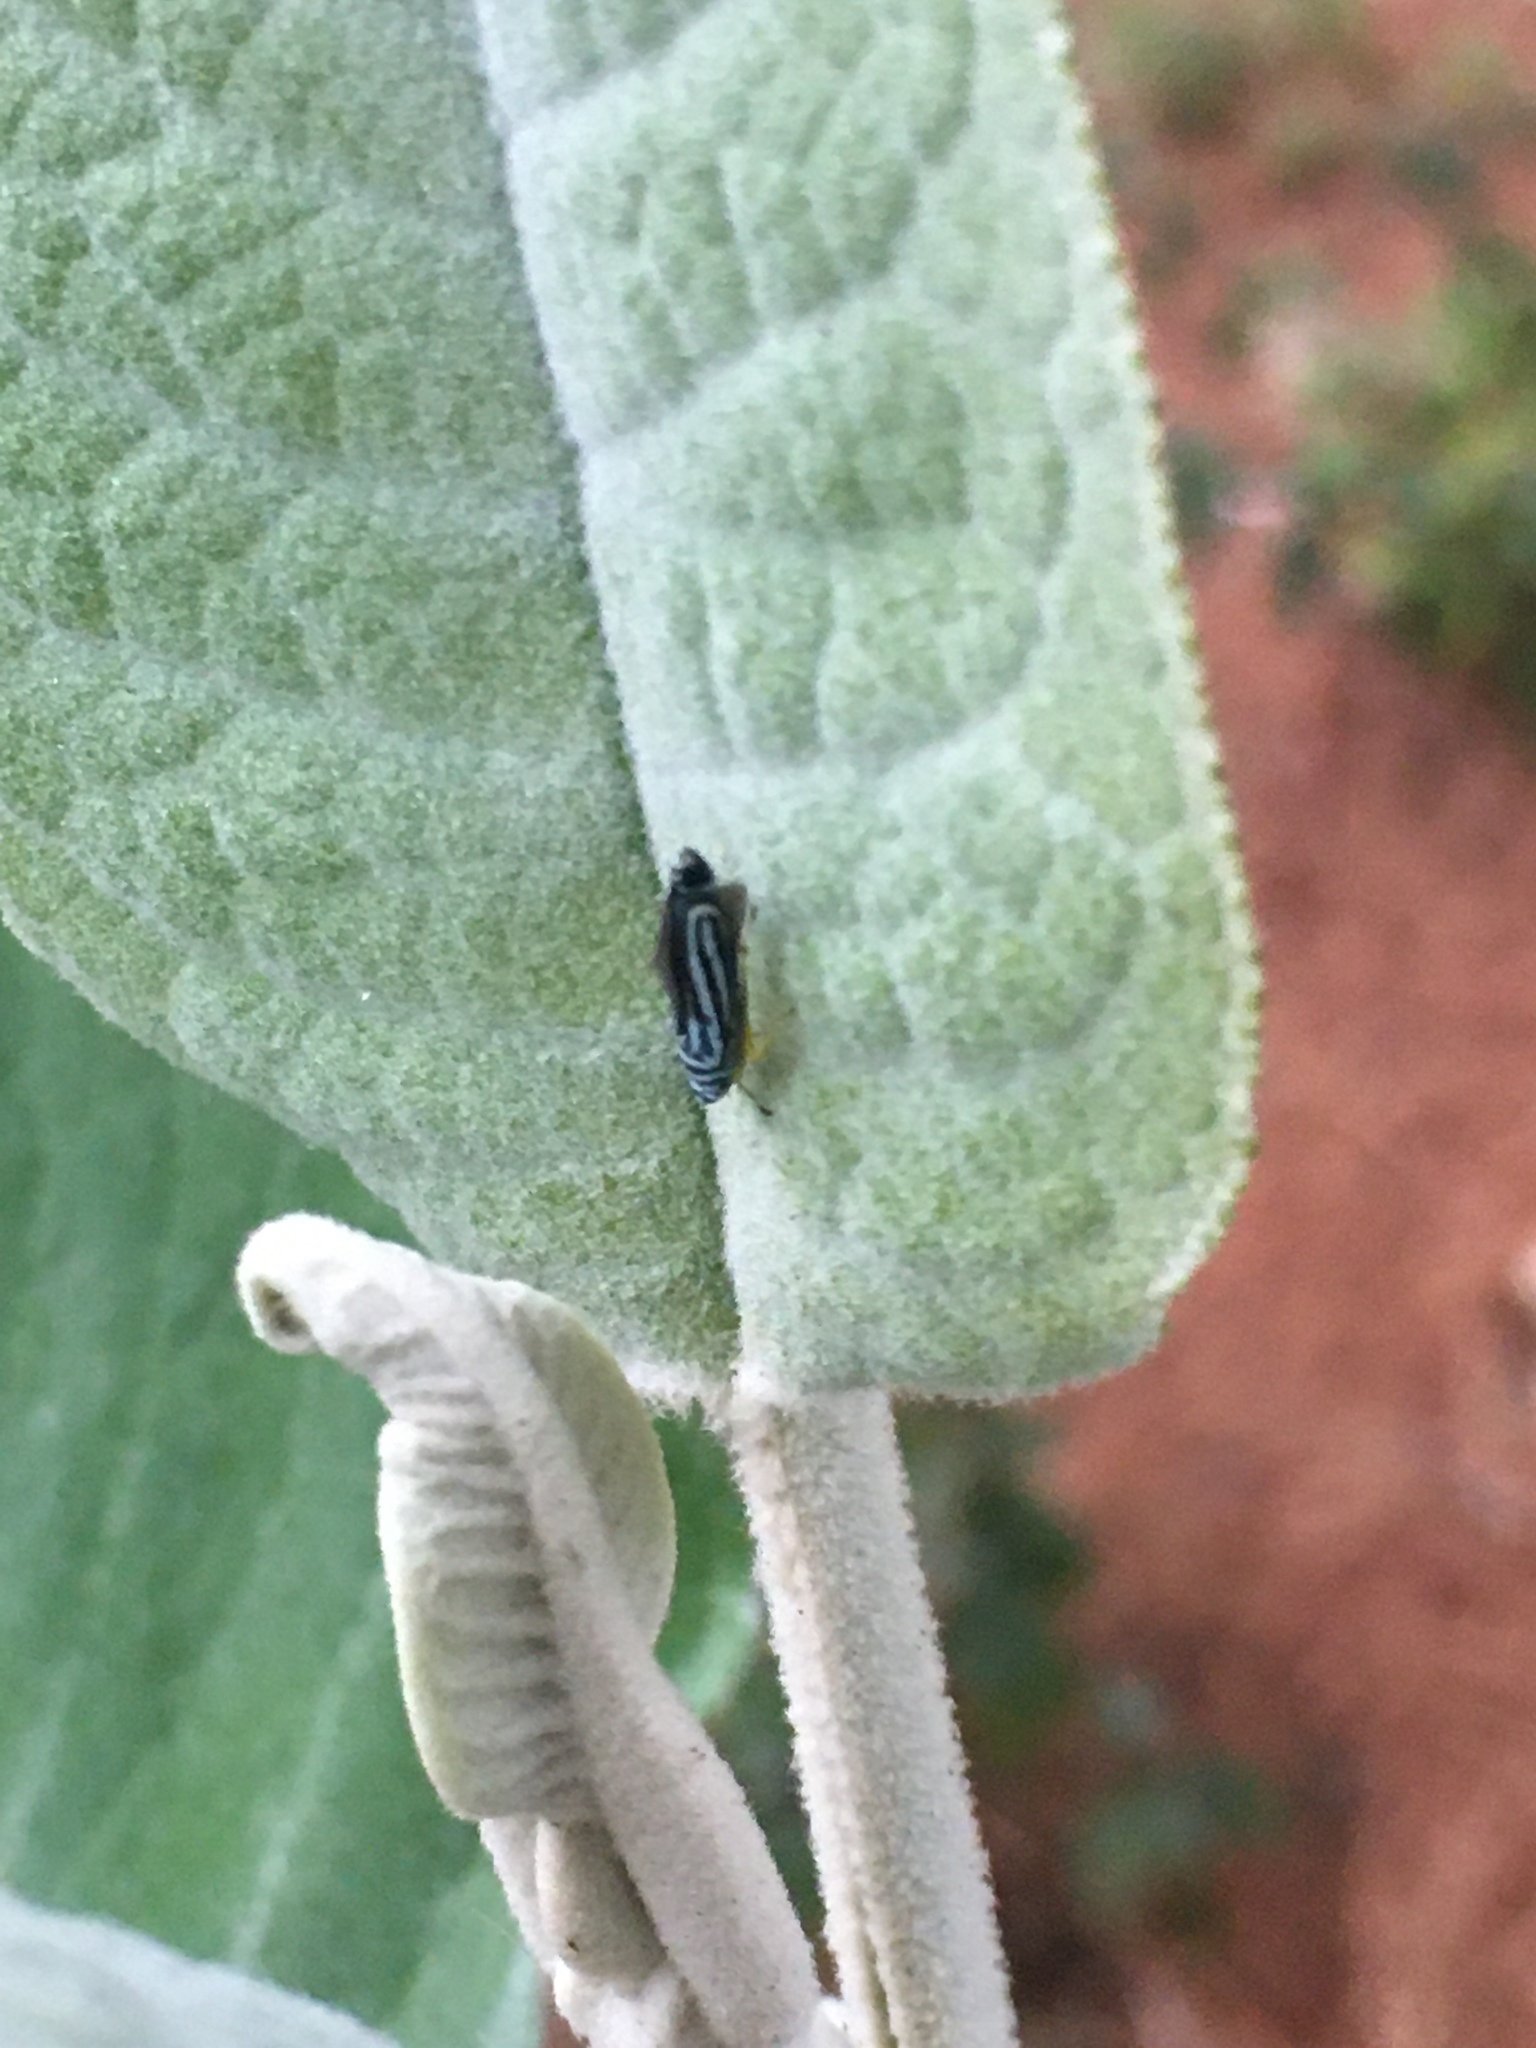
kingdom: Animalia
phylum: Arthropoda
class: Insecta
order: Hemiptera
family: Cicadellidae
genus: Graphocephala
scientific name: Graphocephala flavovittata
